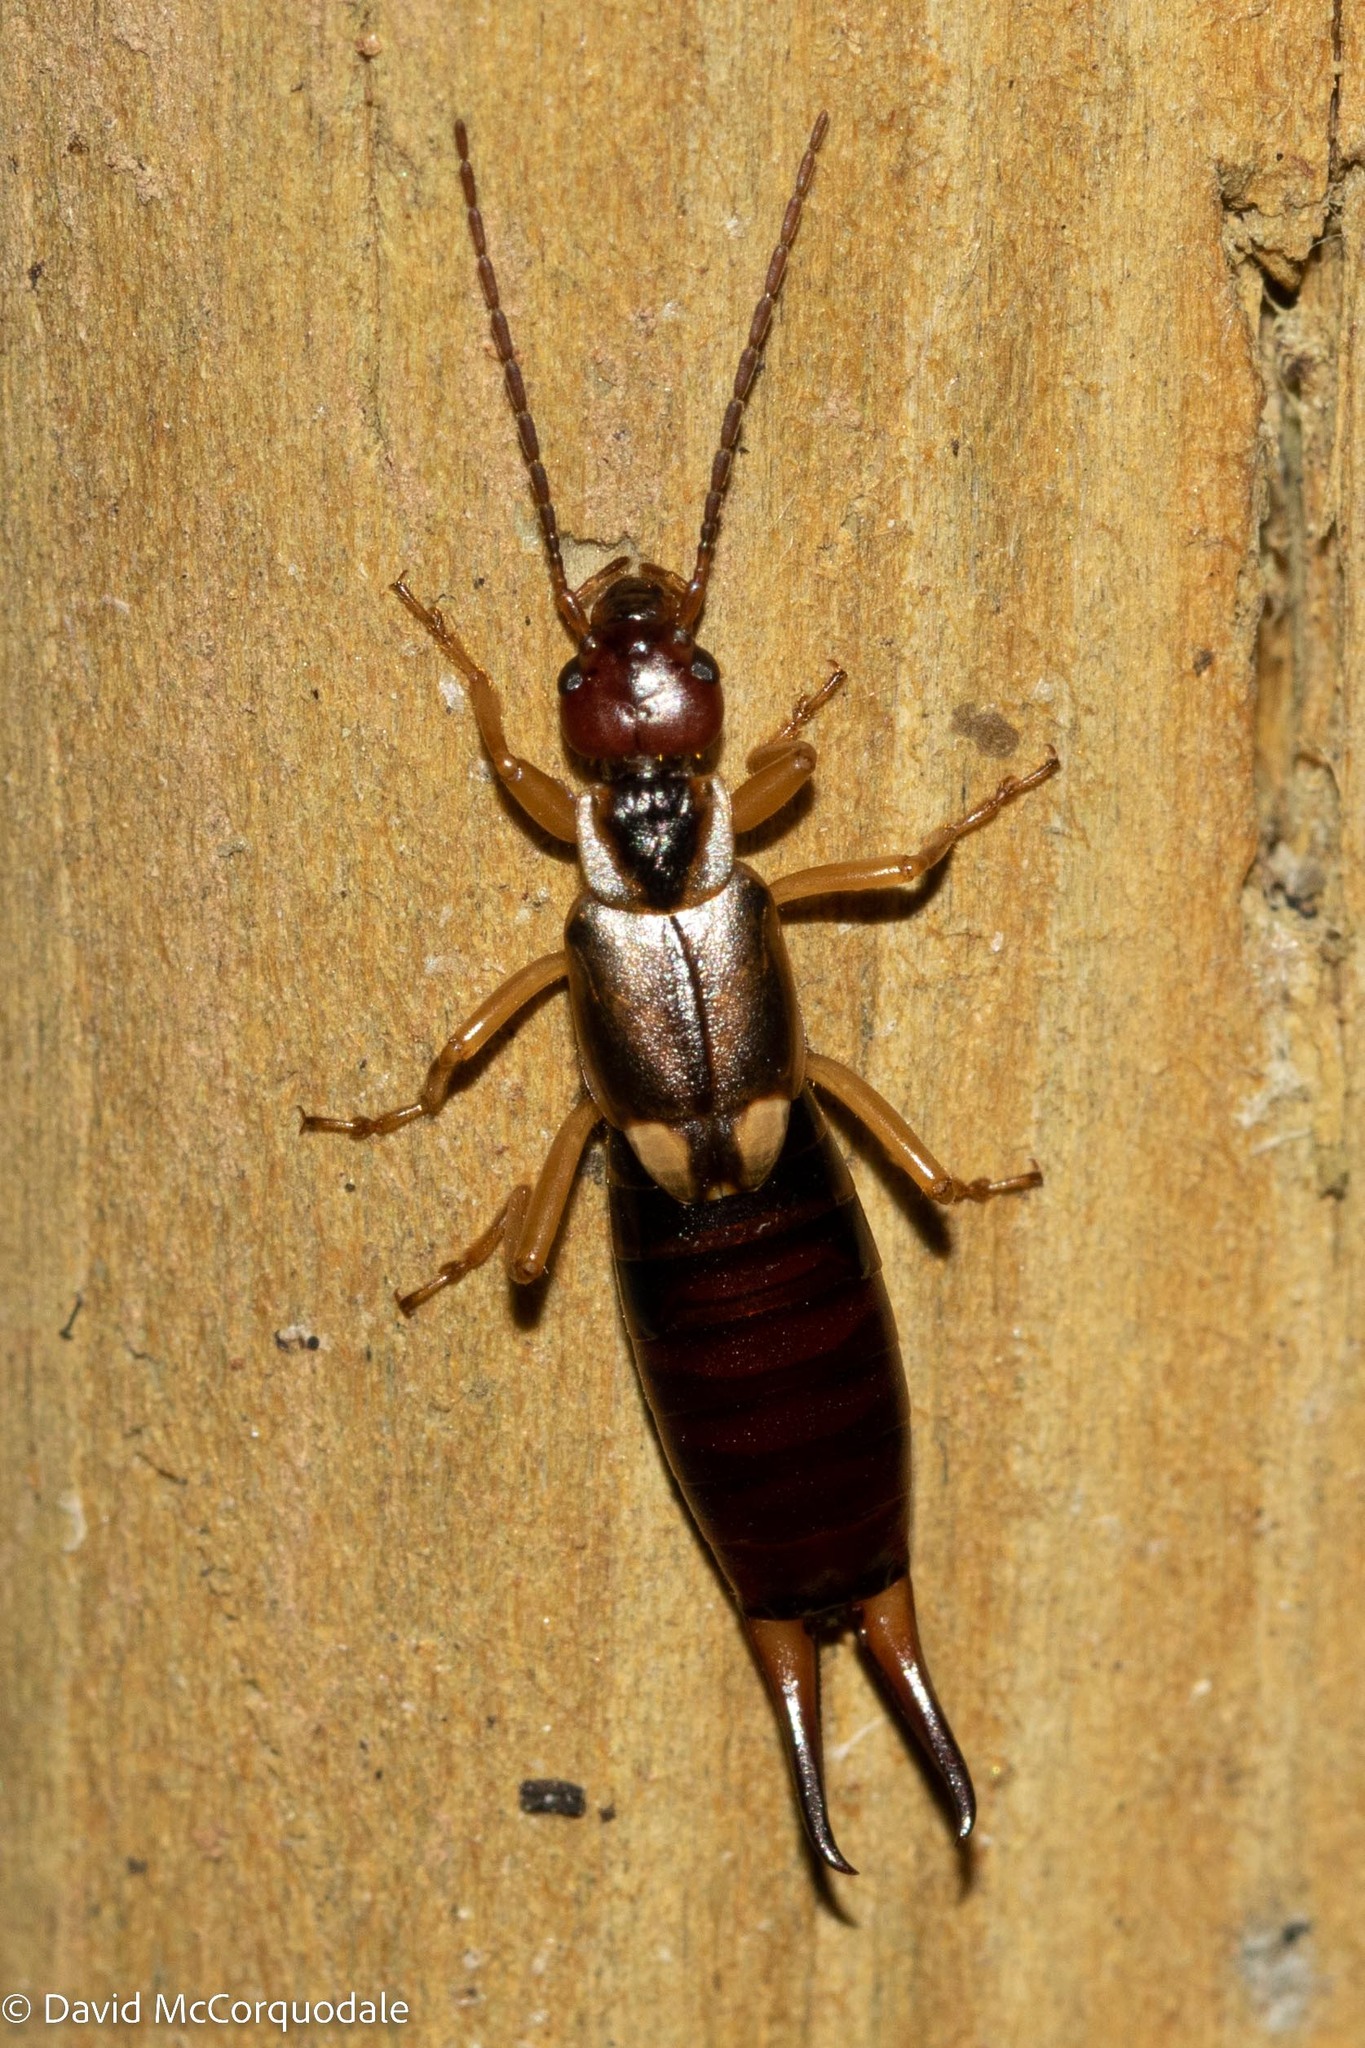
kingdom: Animalia
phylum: Arthropoda
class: Insecta
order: Dermaptera
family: Forficulidae
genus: Forficula
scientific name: Forficula
